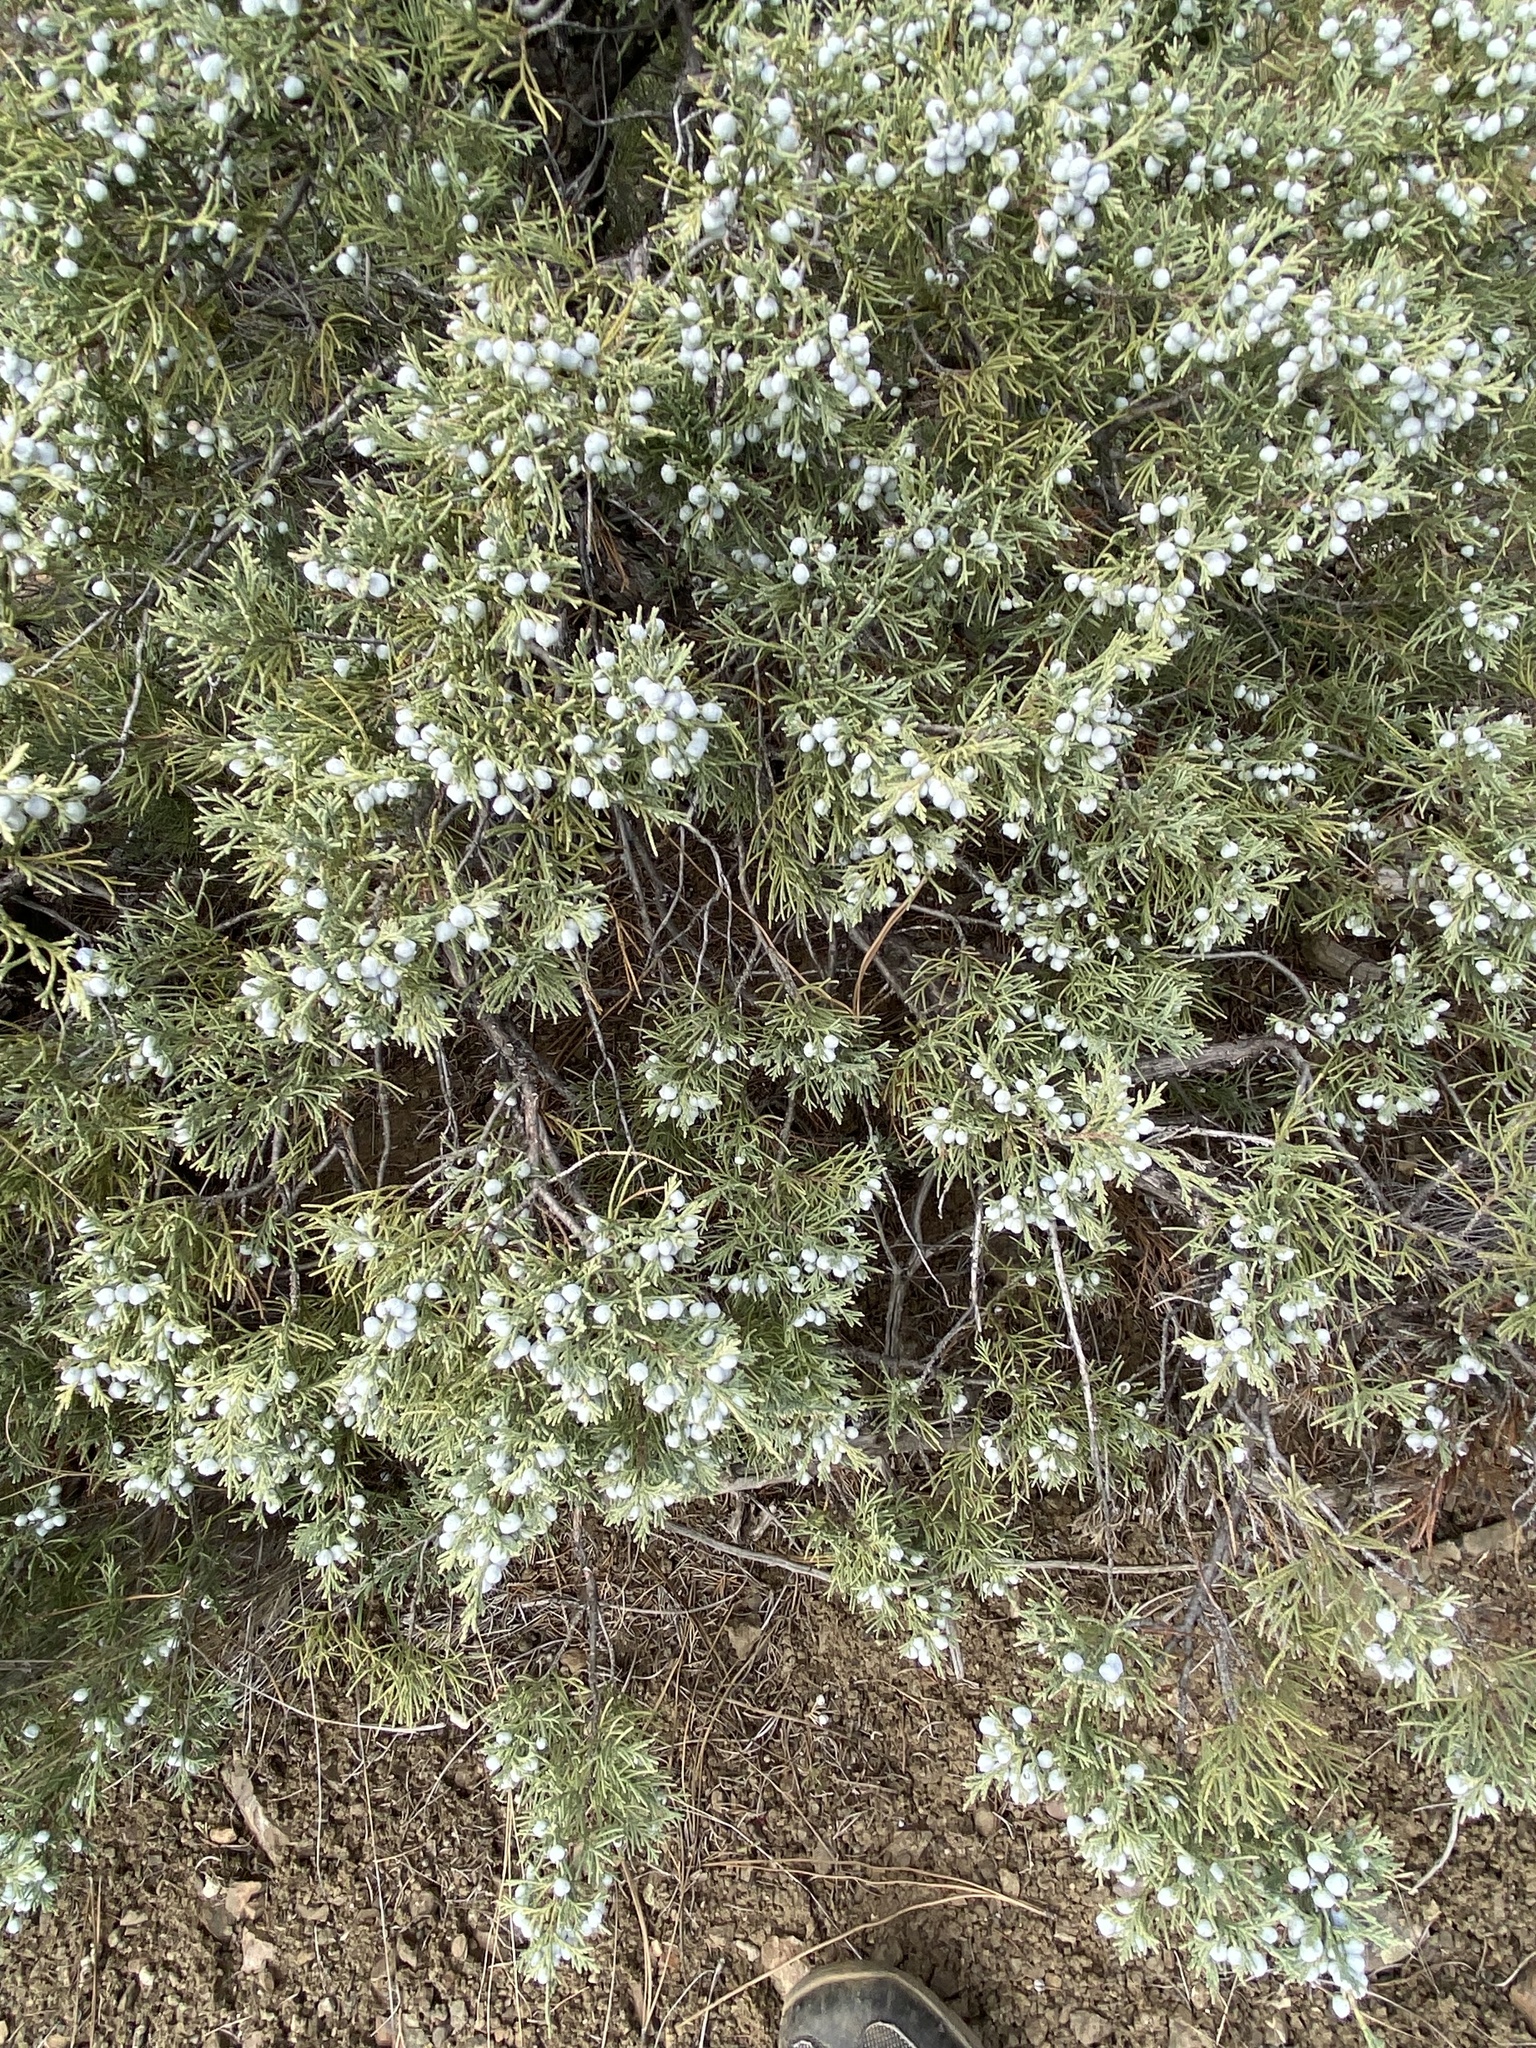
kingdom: Plantae
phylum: Tracheophyta
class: Pinopsida
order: Pinales
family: Cupressaceae
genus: Juniperus
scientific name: Juniperus scopulorum
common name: Rocky mountain juniper
